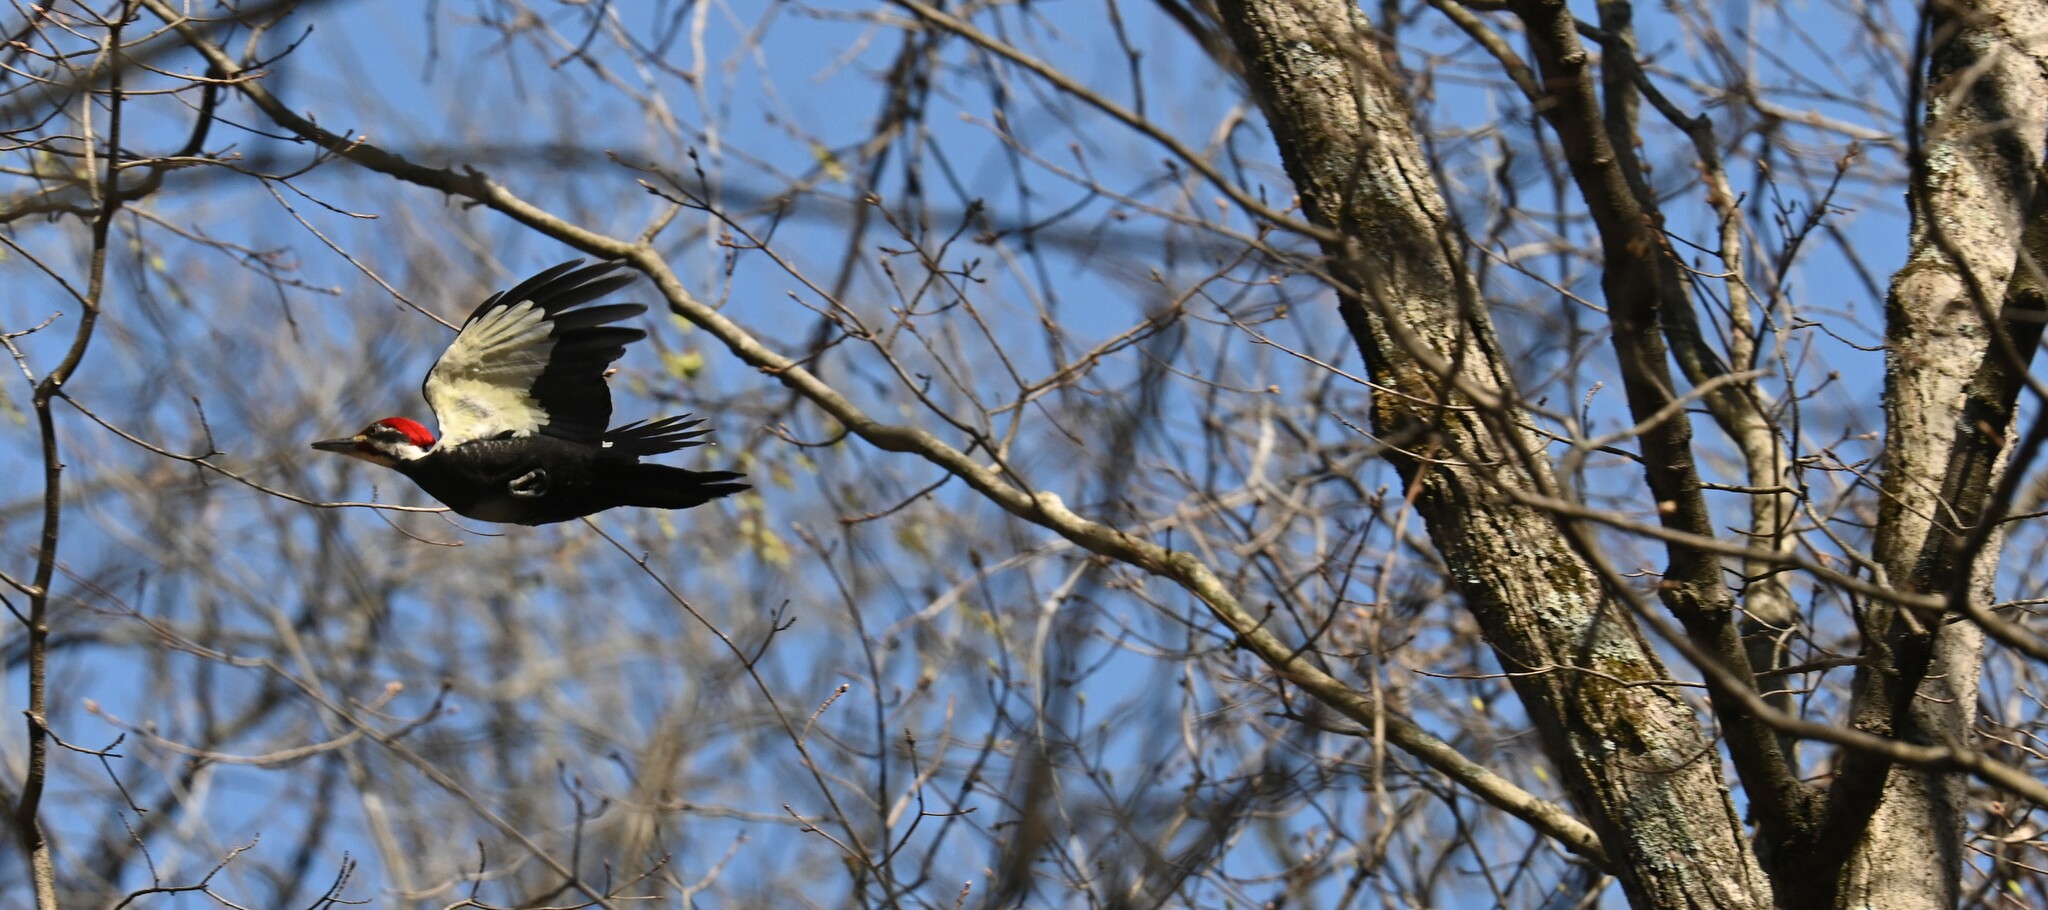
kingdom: Animalia
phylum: Chordata
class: Aves
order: Piciformes
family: Picidae
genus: Dryocopus
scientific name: Dryocopus pileatus
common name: Pileated woodpecker
